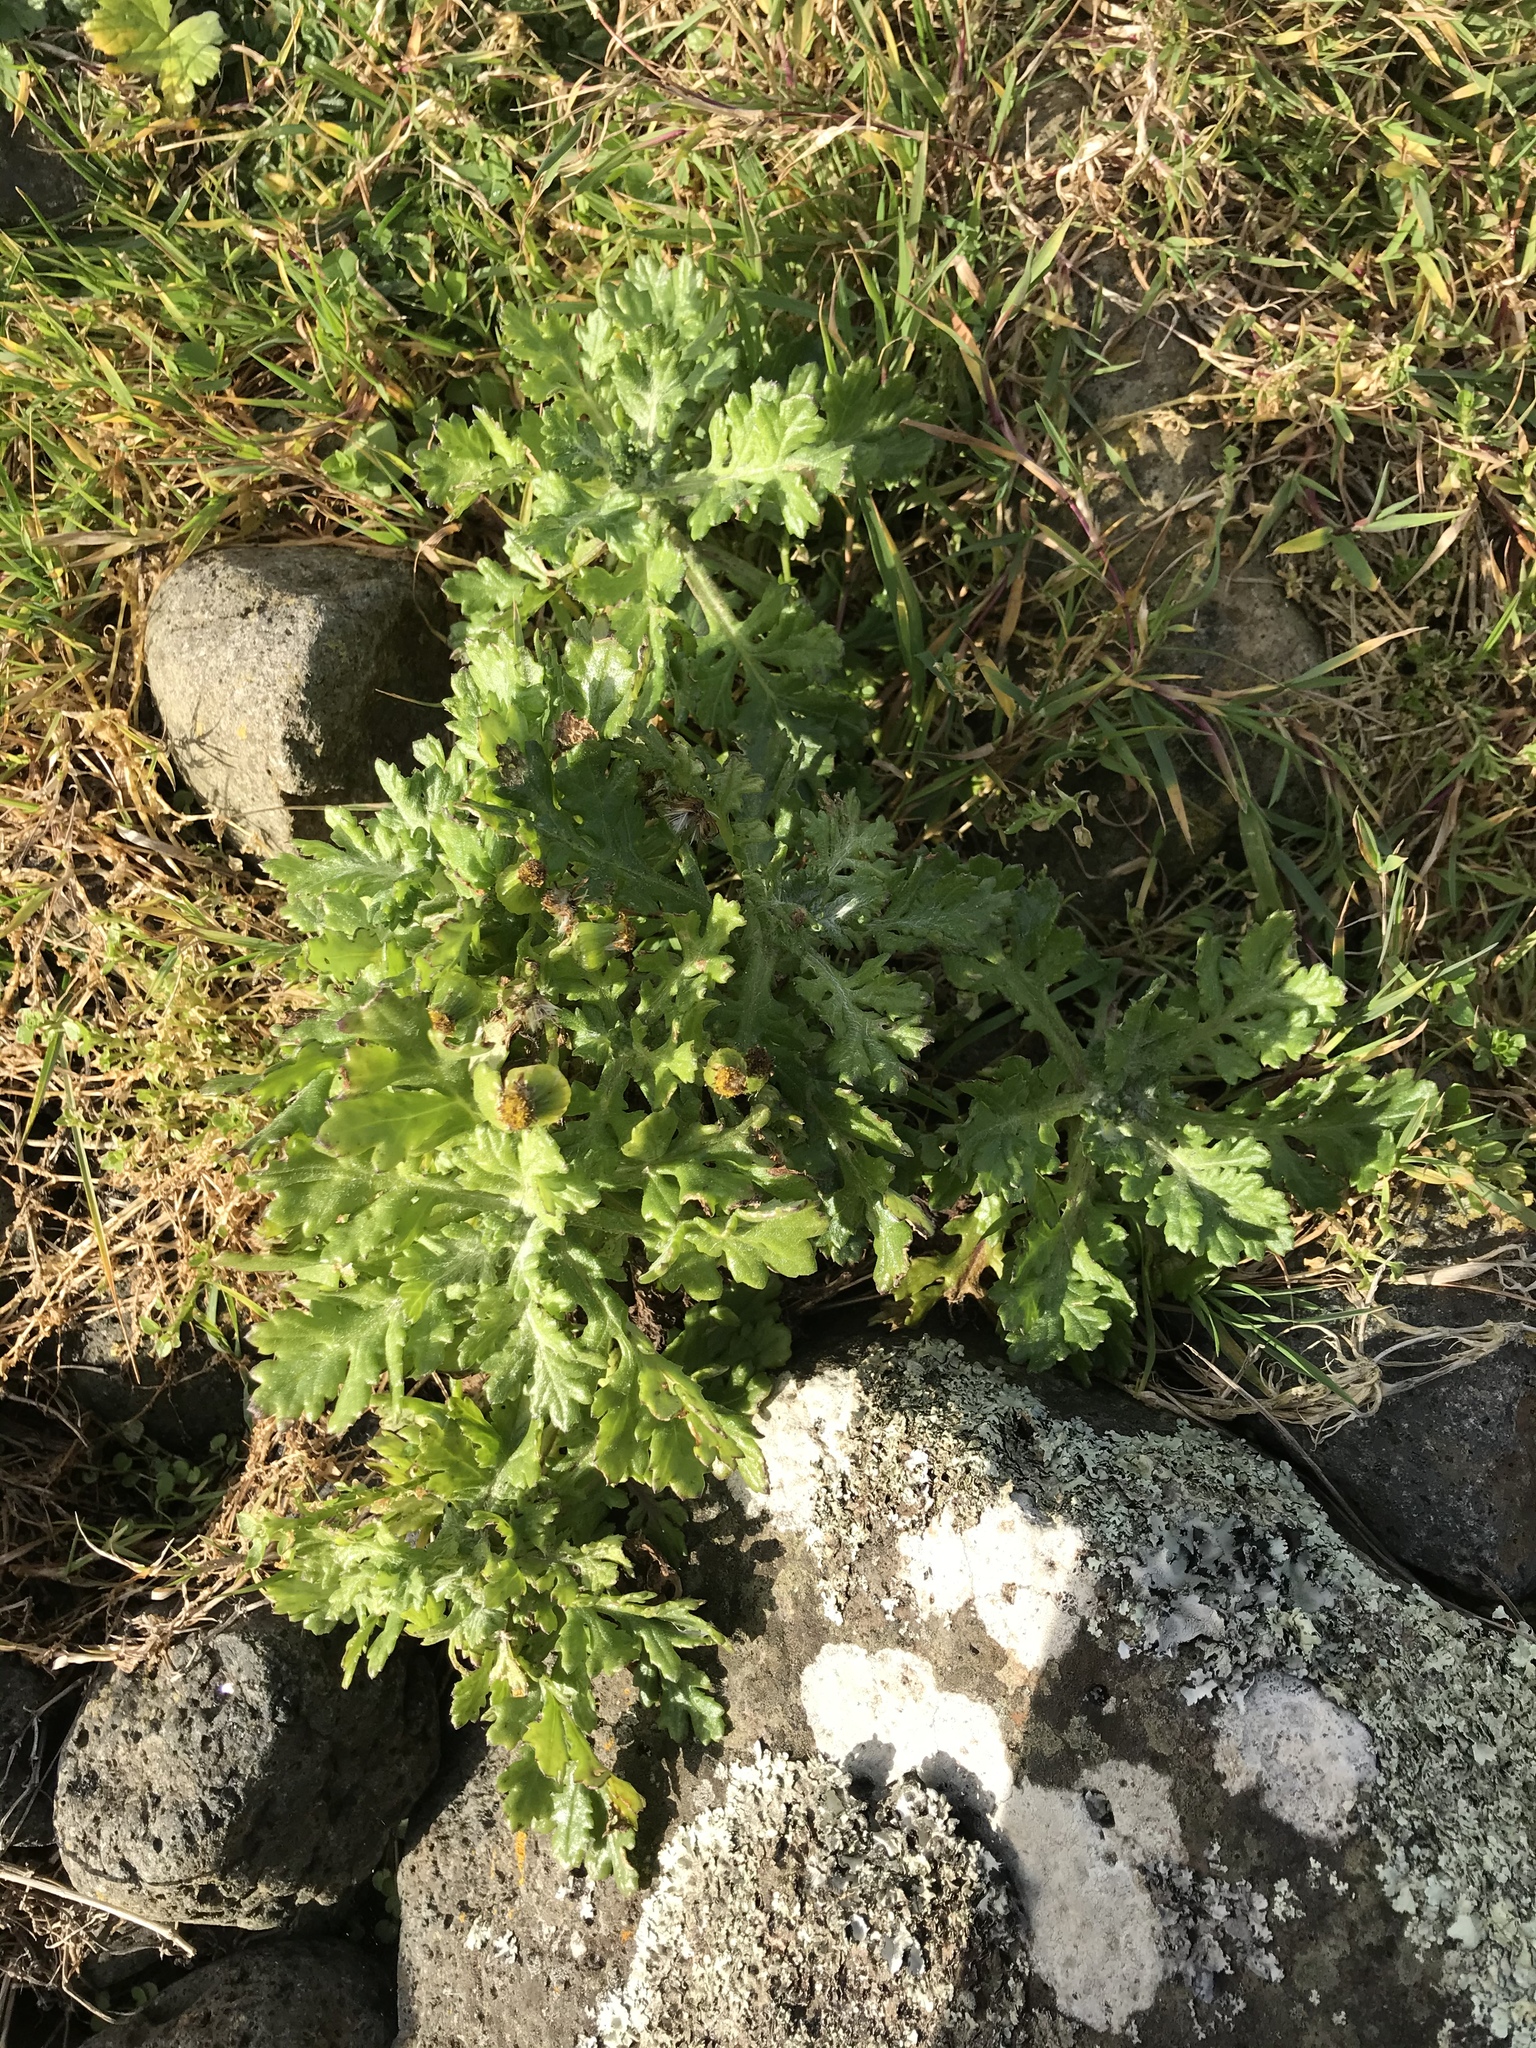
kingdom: Plantae
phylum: Tracheophyta
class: Magnoliopsida
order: Asterales
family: Asteraceae
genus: Senecio
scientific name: Senecio radiolatus
